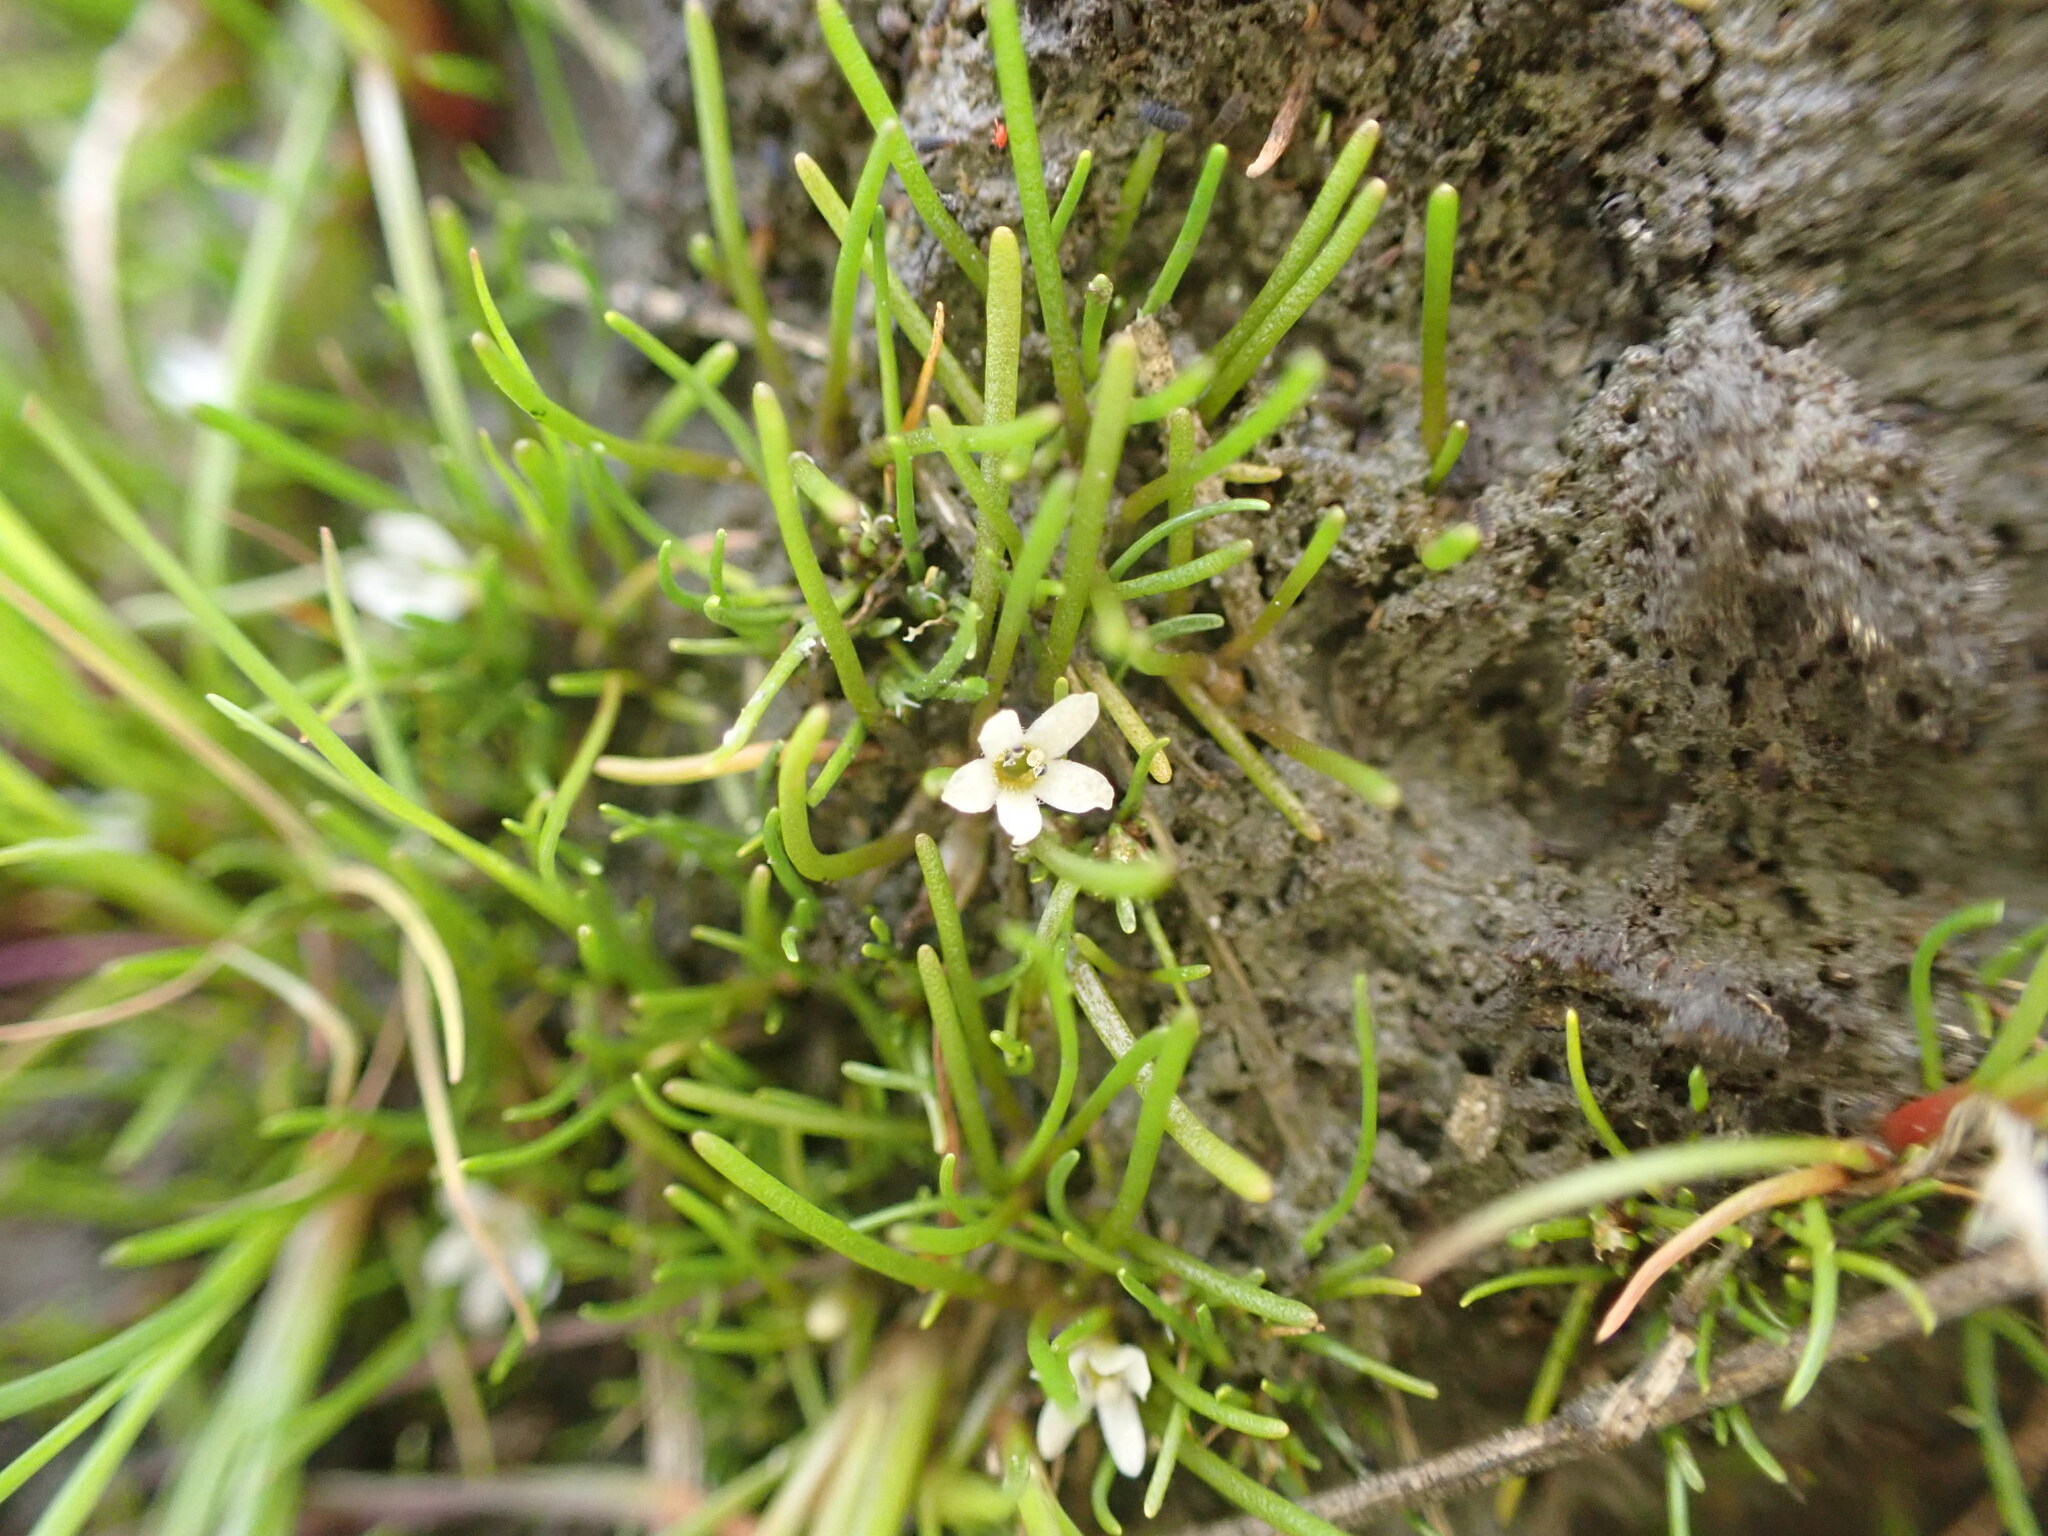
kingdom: Plantae
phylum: Tracheophyta
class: Magnoliopsida
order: Lamiales
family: Scrophulariaceae
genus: Limosella
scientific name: Limosella australis
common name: Welsh mudwort
